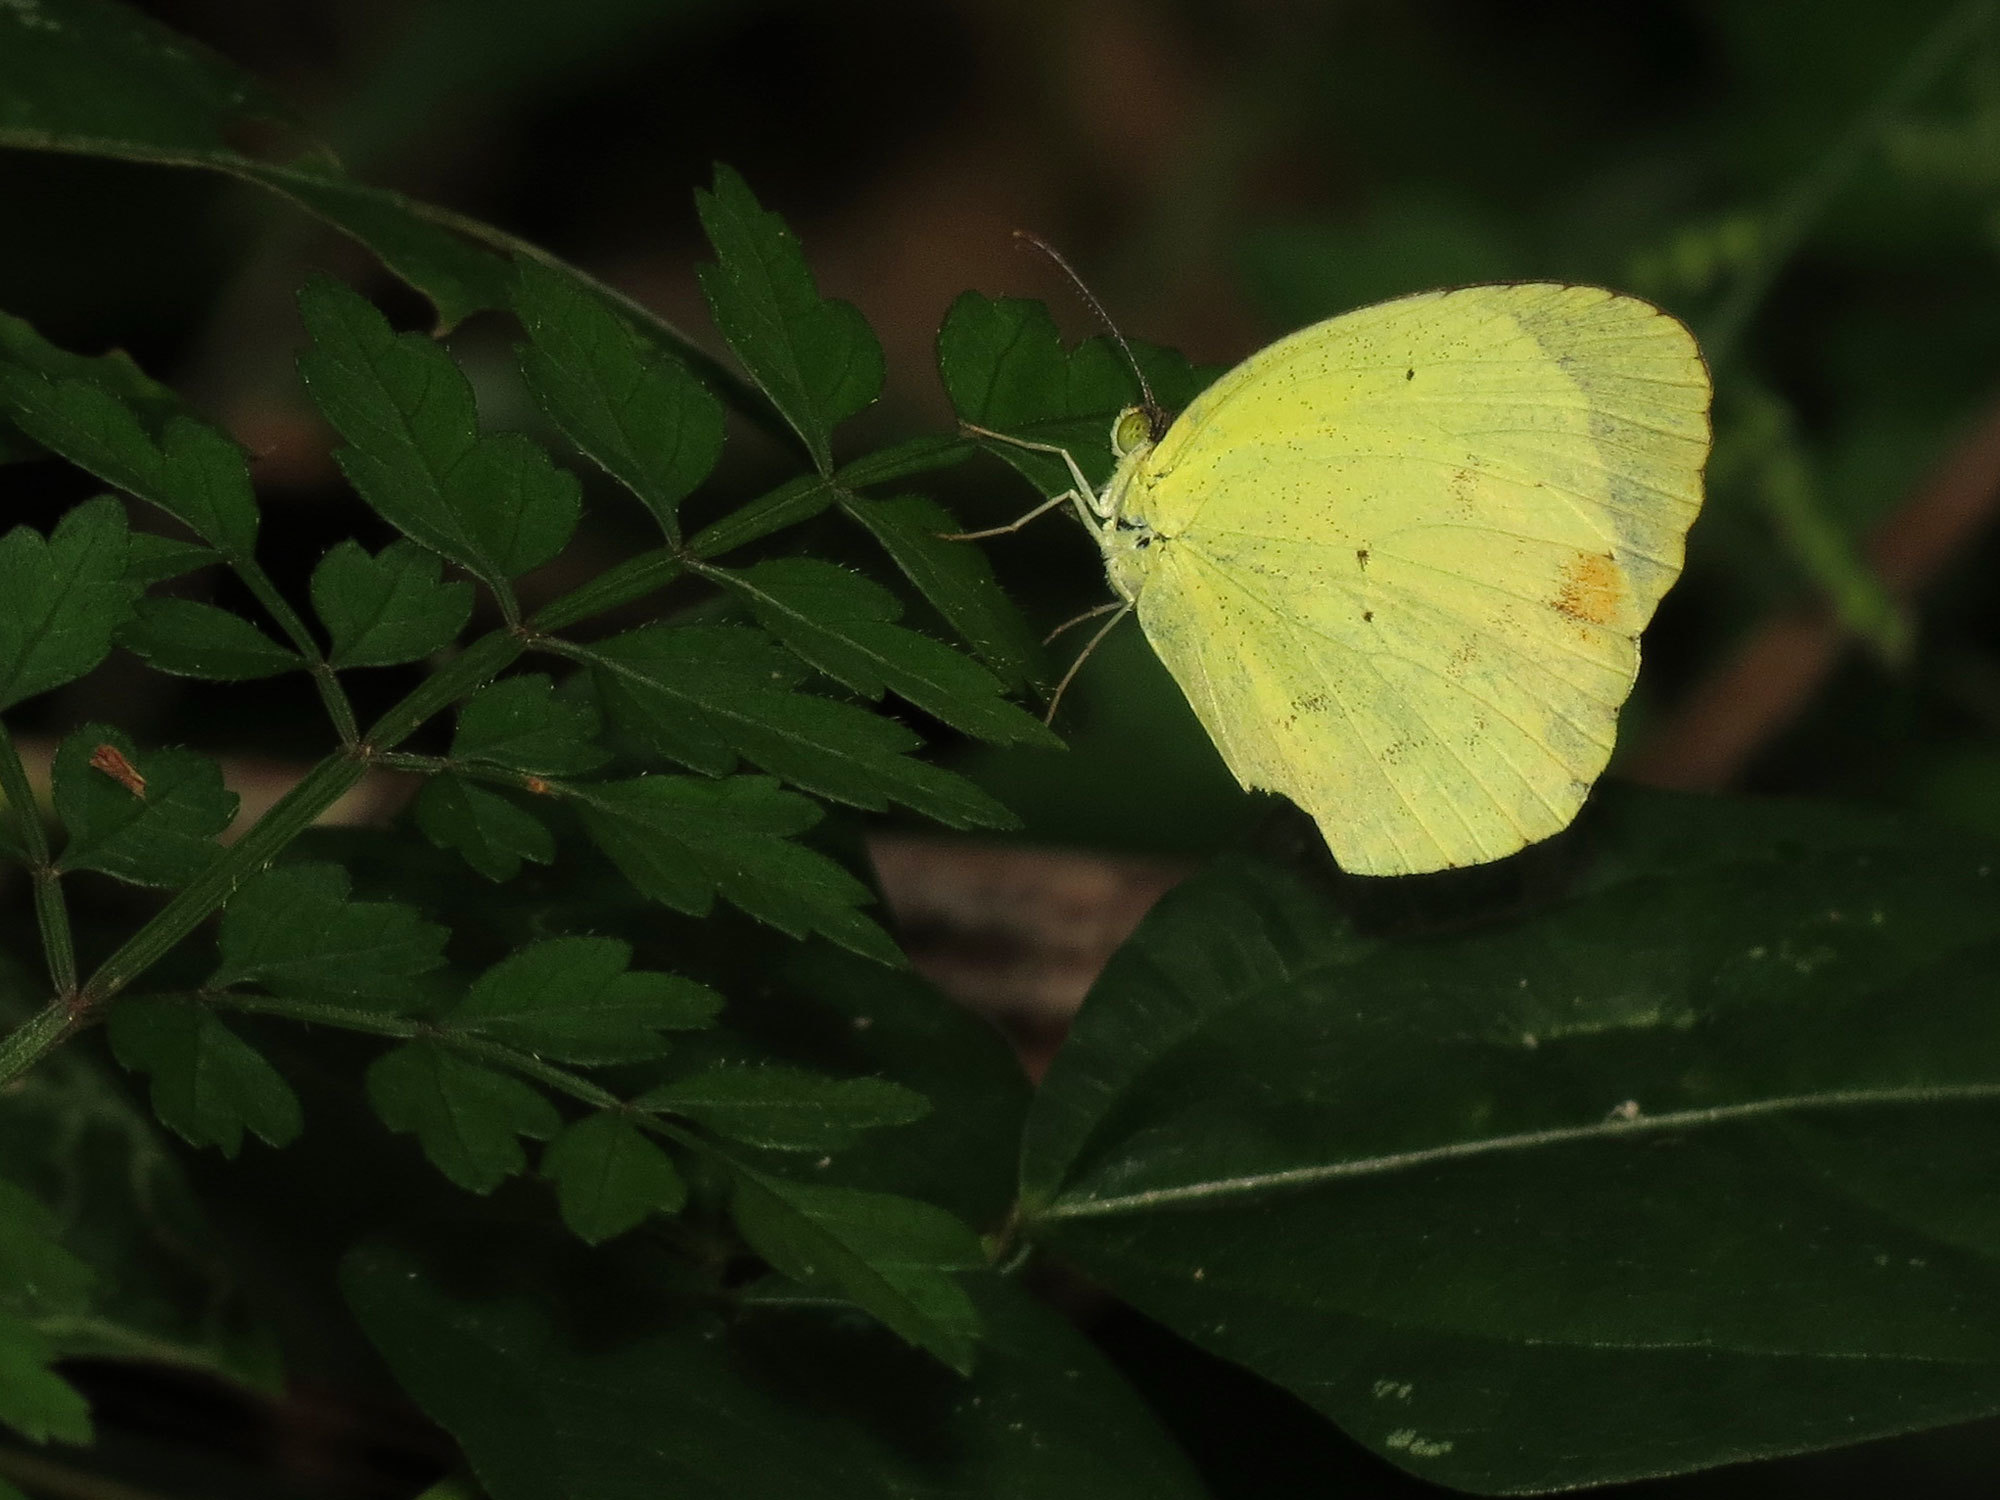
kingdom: Animalia
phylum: Arthropoda
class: Insecta
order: Lepidoptera
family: Pieridae
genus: Pyrisitia
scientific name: Pyrisitia nise
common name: Mimosa yellow
